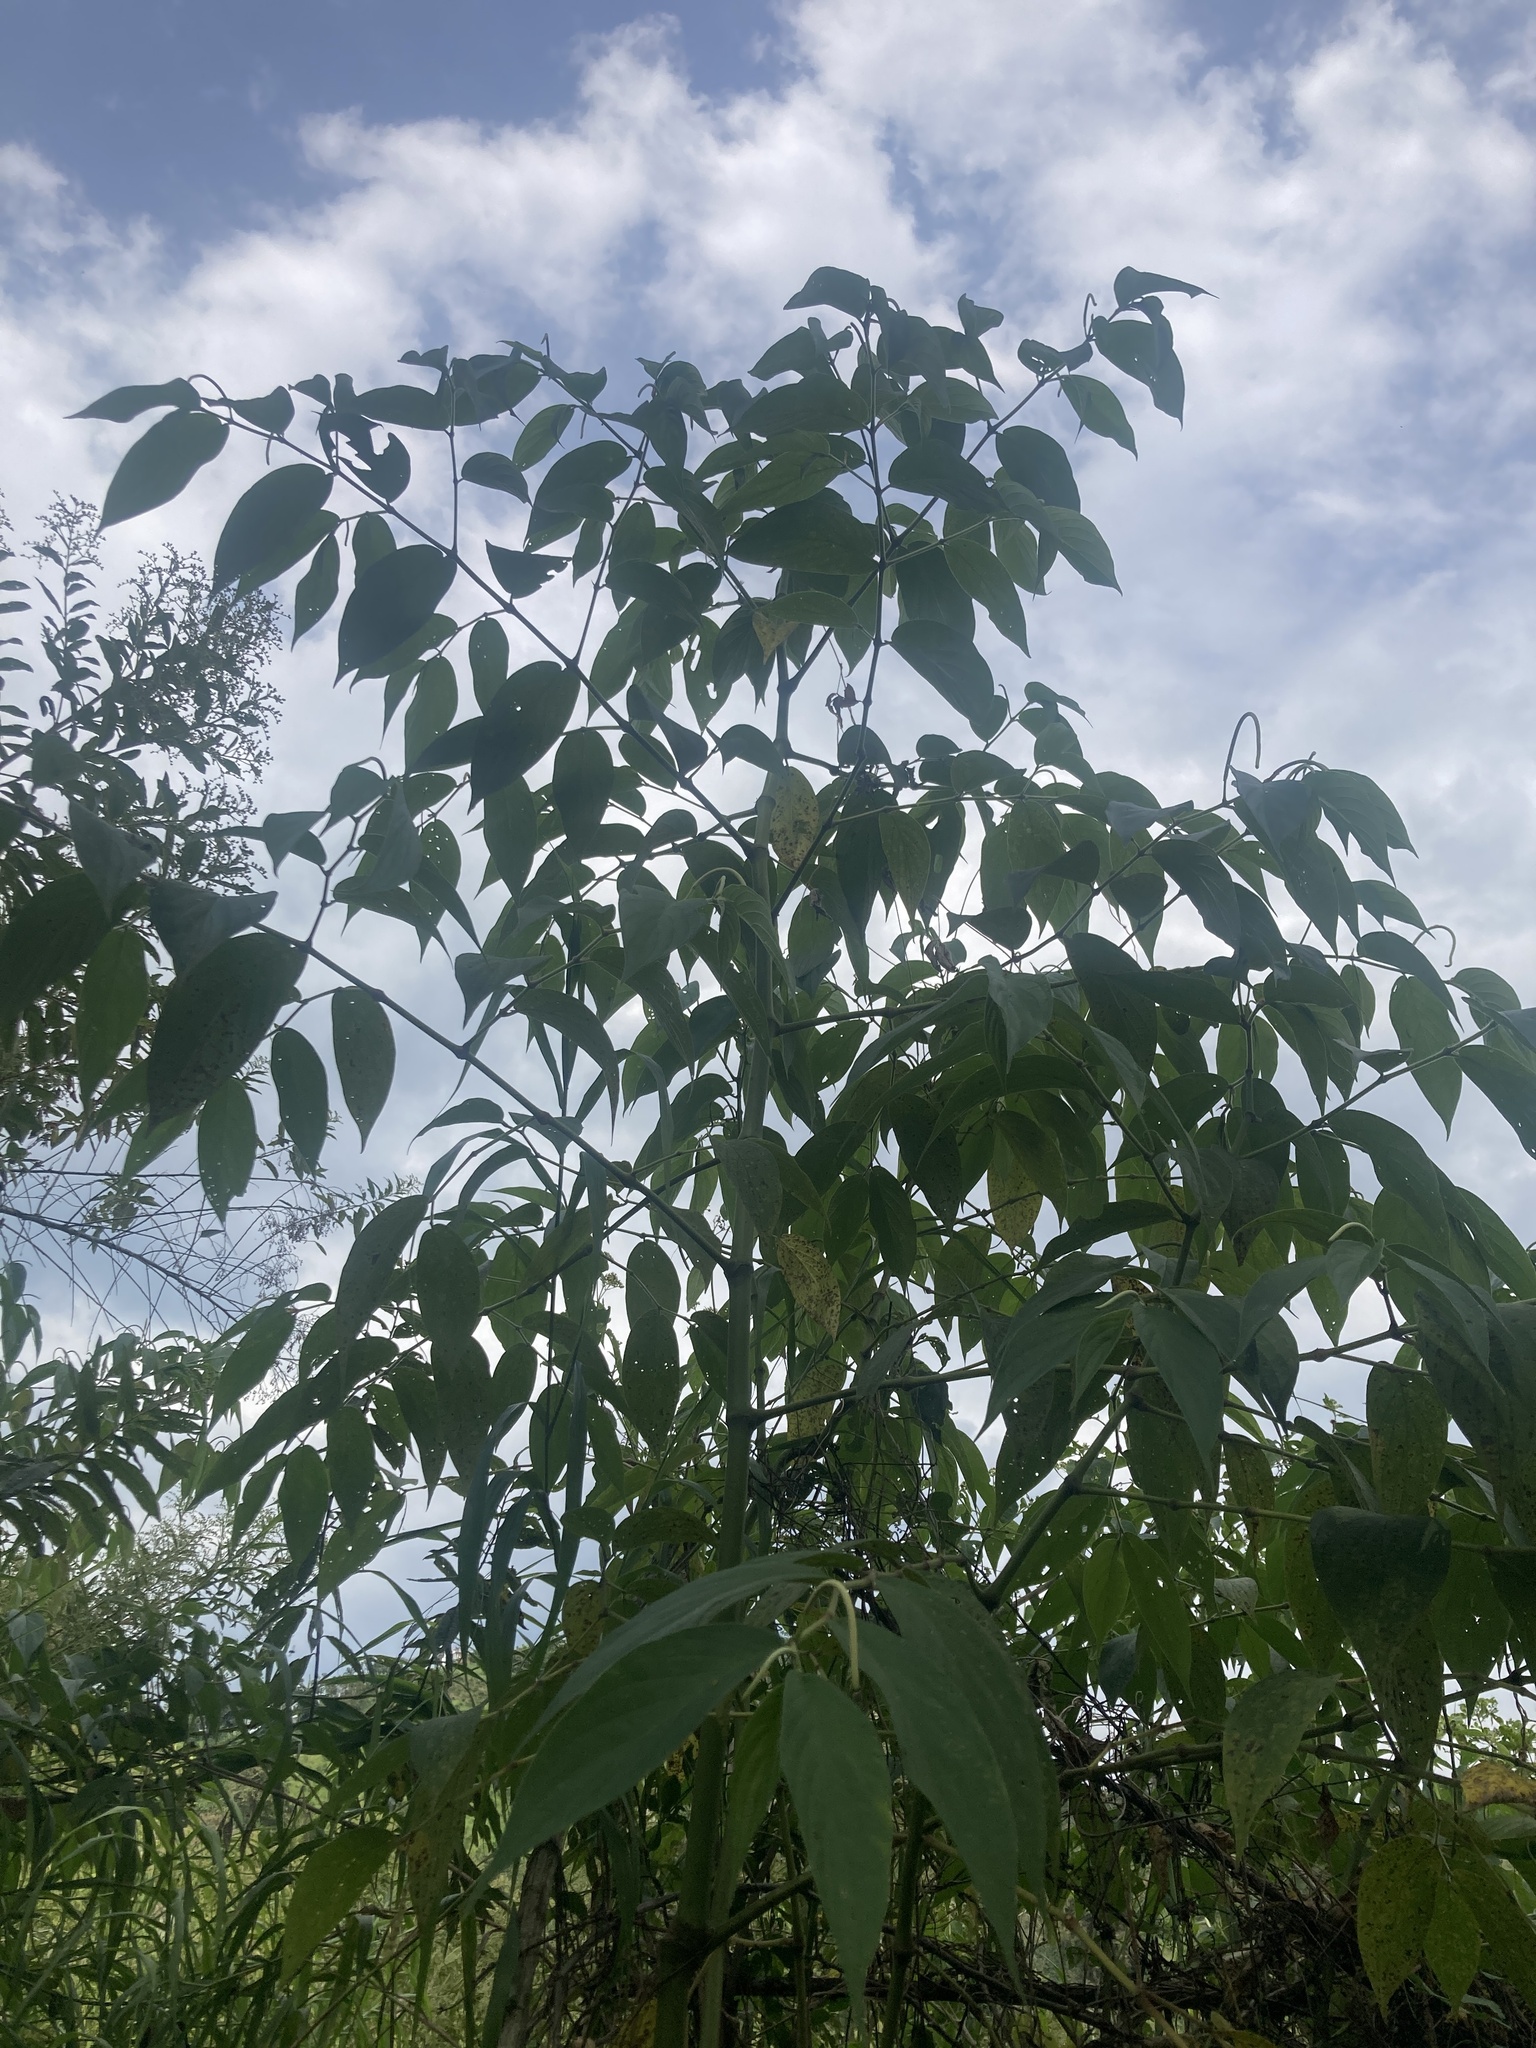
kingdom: Plantae
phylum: Tracheophyta
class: Magnoliopsida
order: Piperales
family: Piperaceae
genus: Piper
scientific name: Piper aduncum
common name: Spiked pepper
